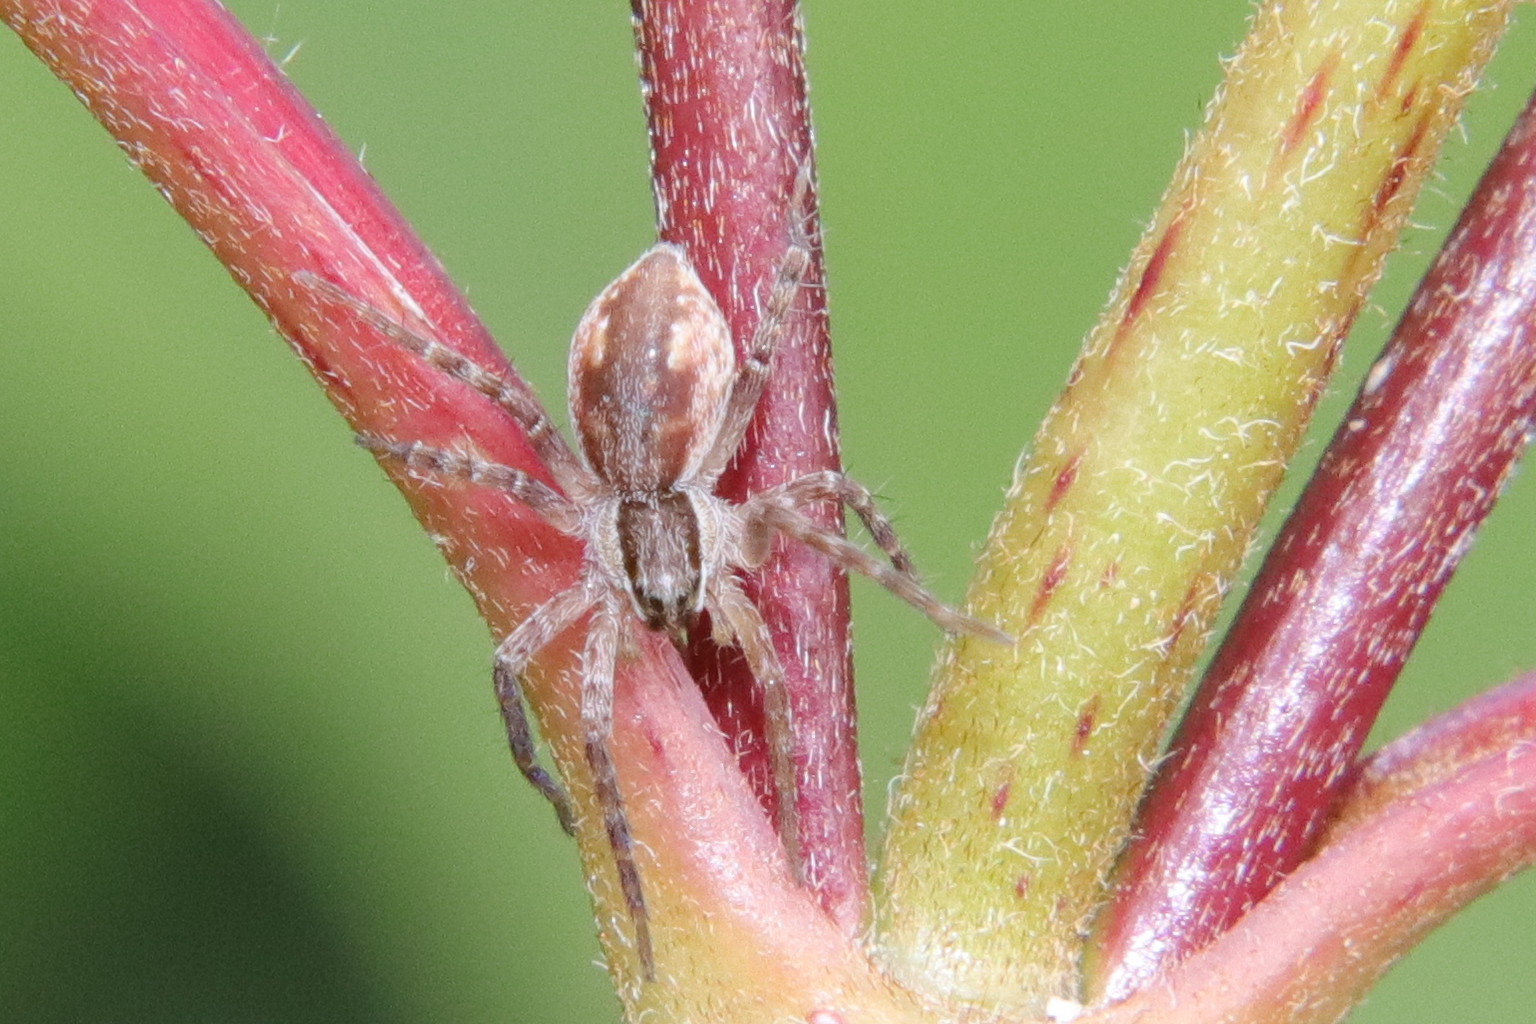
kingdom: Animalia
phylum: Arthropoda
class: Arachnida
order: Araneae
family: Pisauridae
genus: Dolomedes
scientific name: Dolomedes minor
